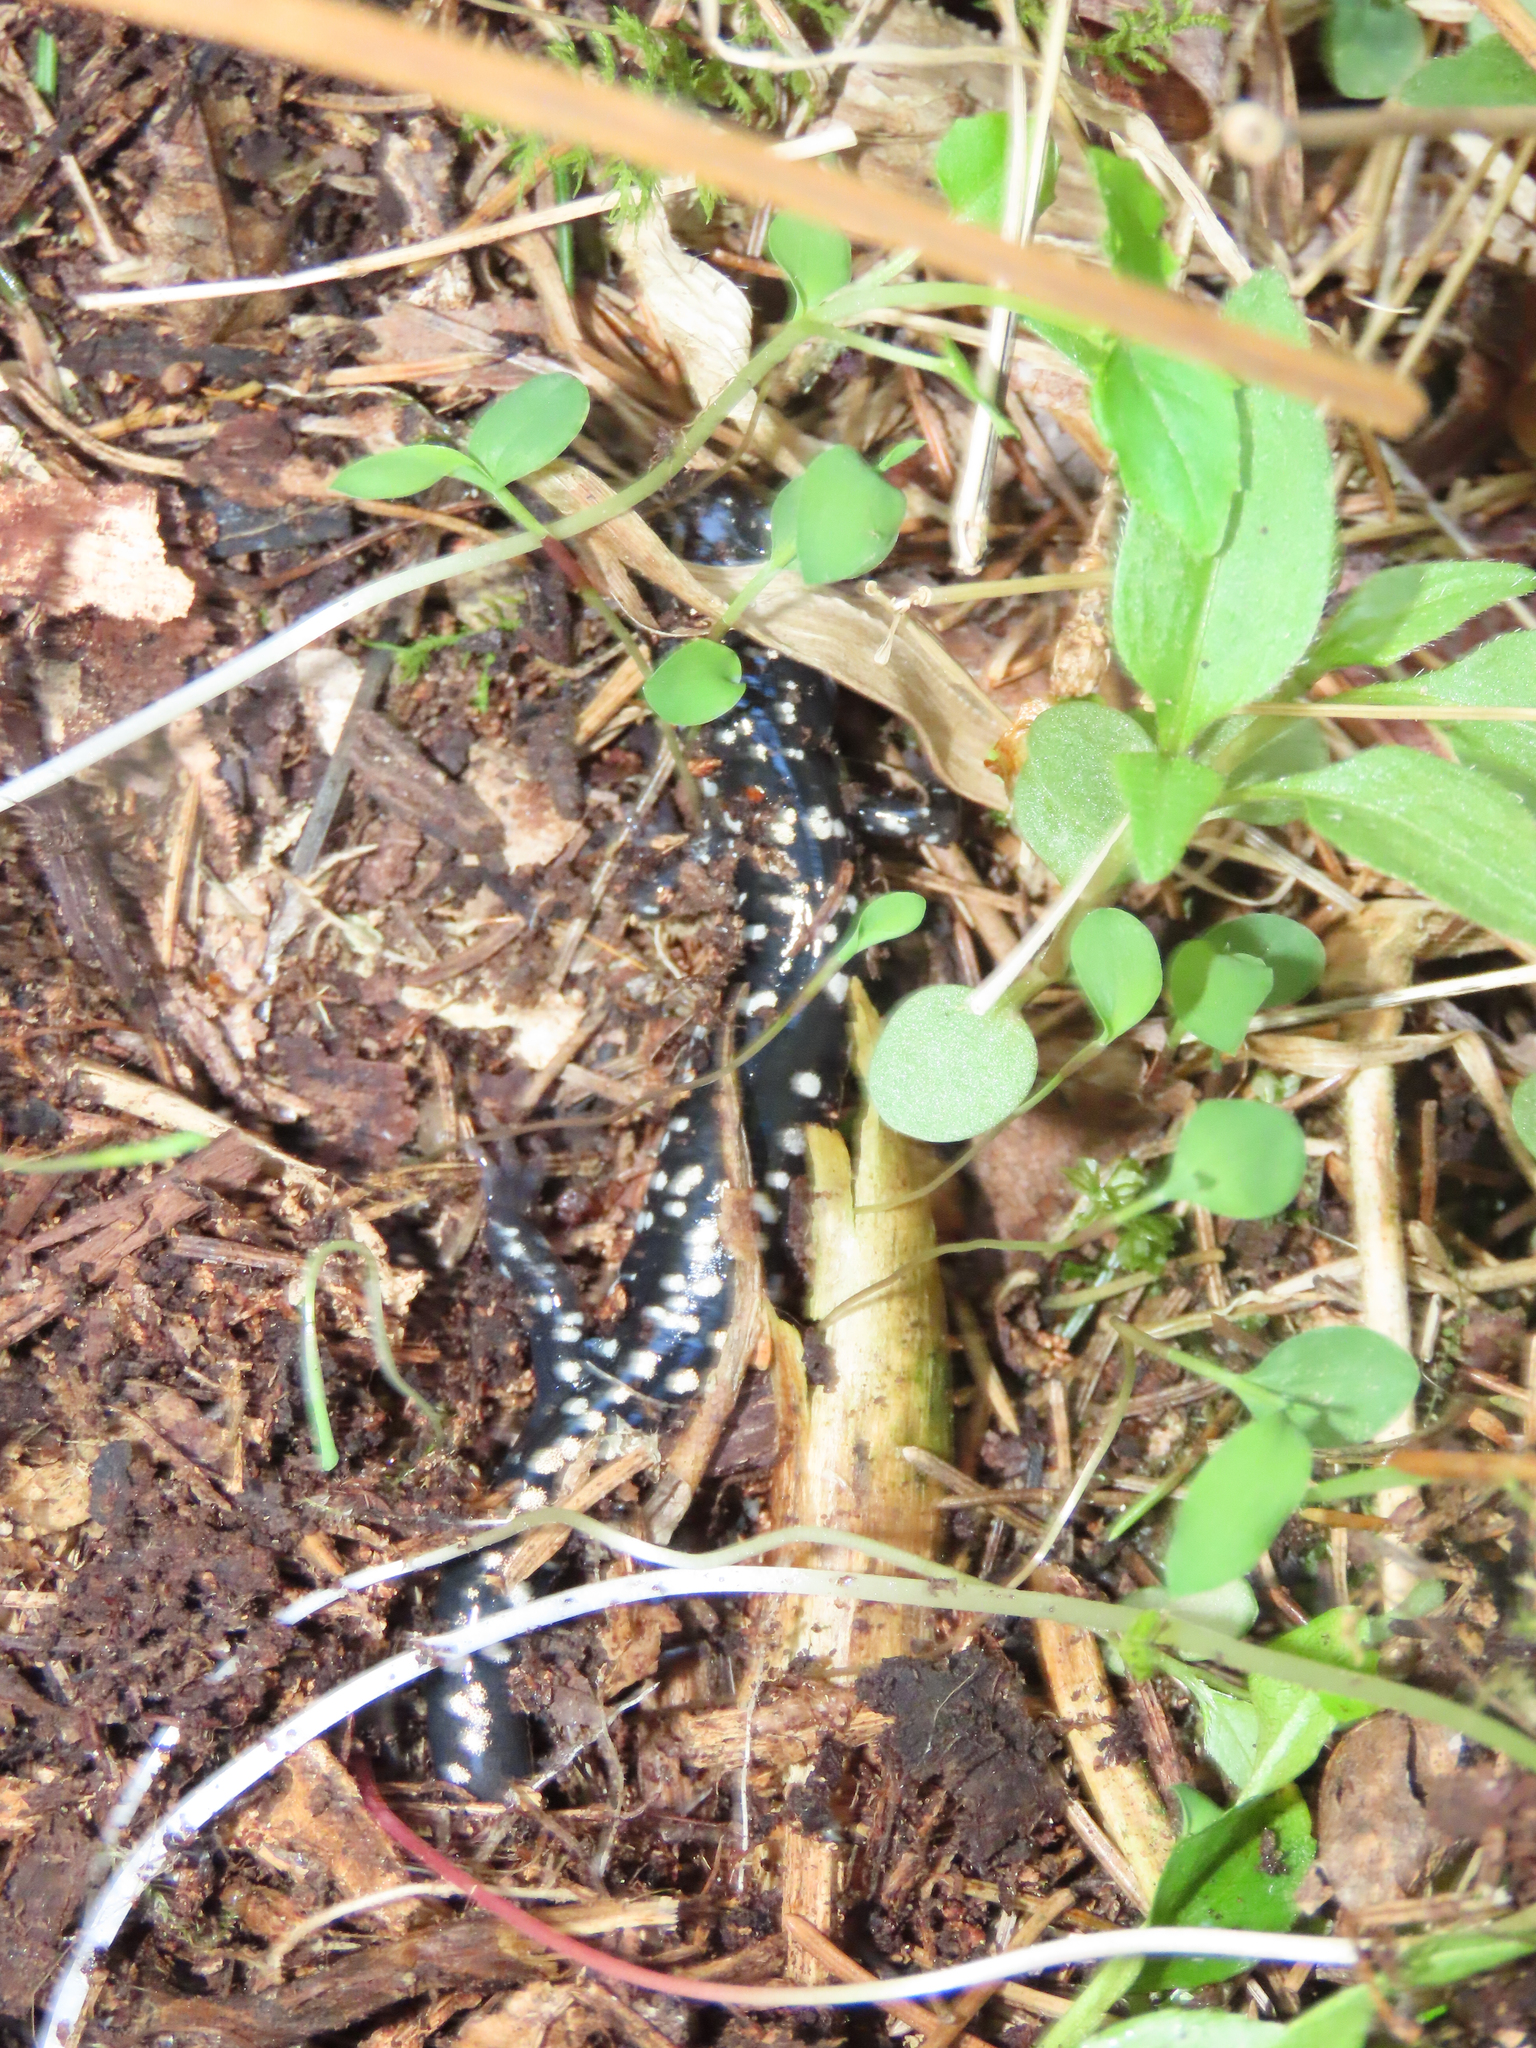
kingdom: Animalia
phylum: Chordata
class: Amphibia
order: Caudata
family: Plethodontidae
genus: Plethodon
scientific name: Plethodon glutinosus
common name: Northern slimy salamander
